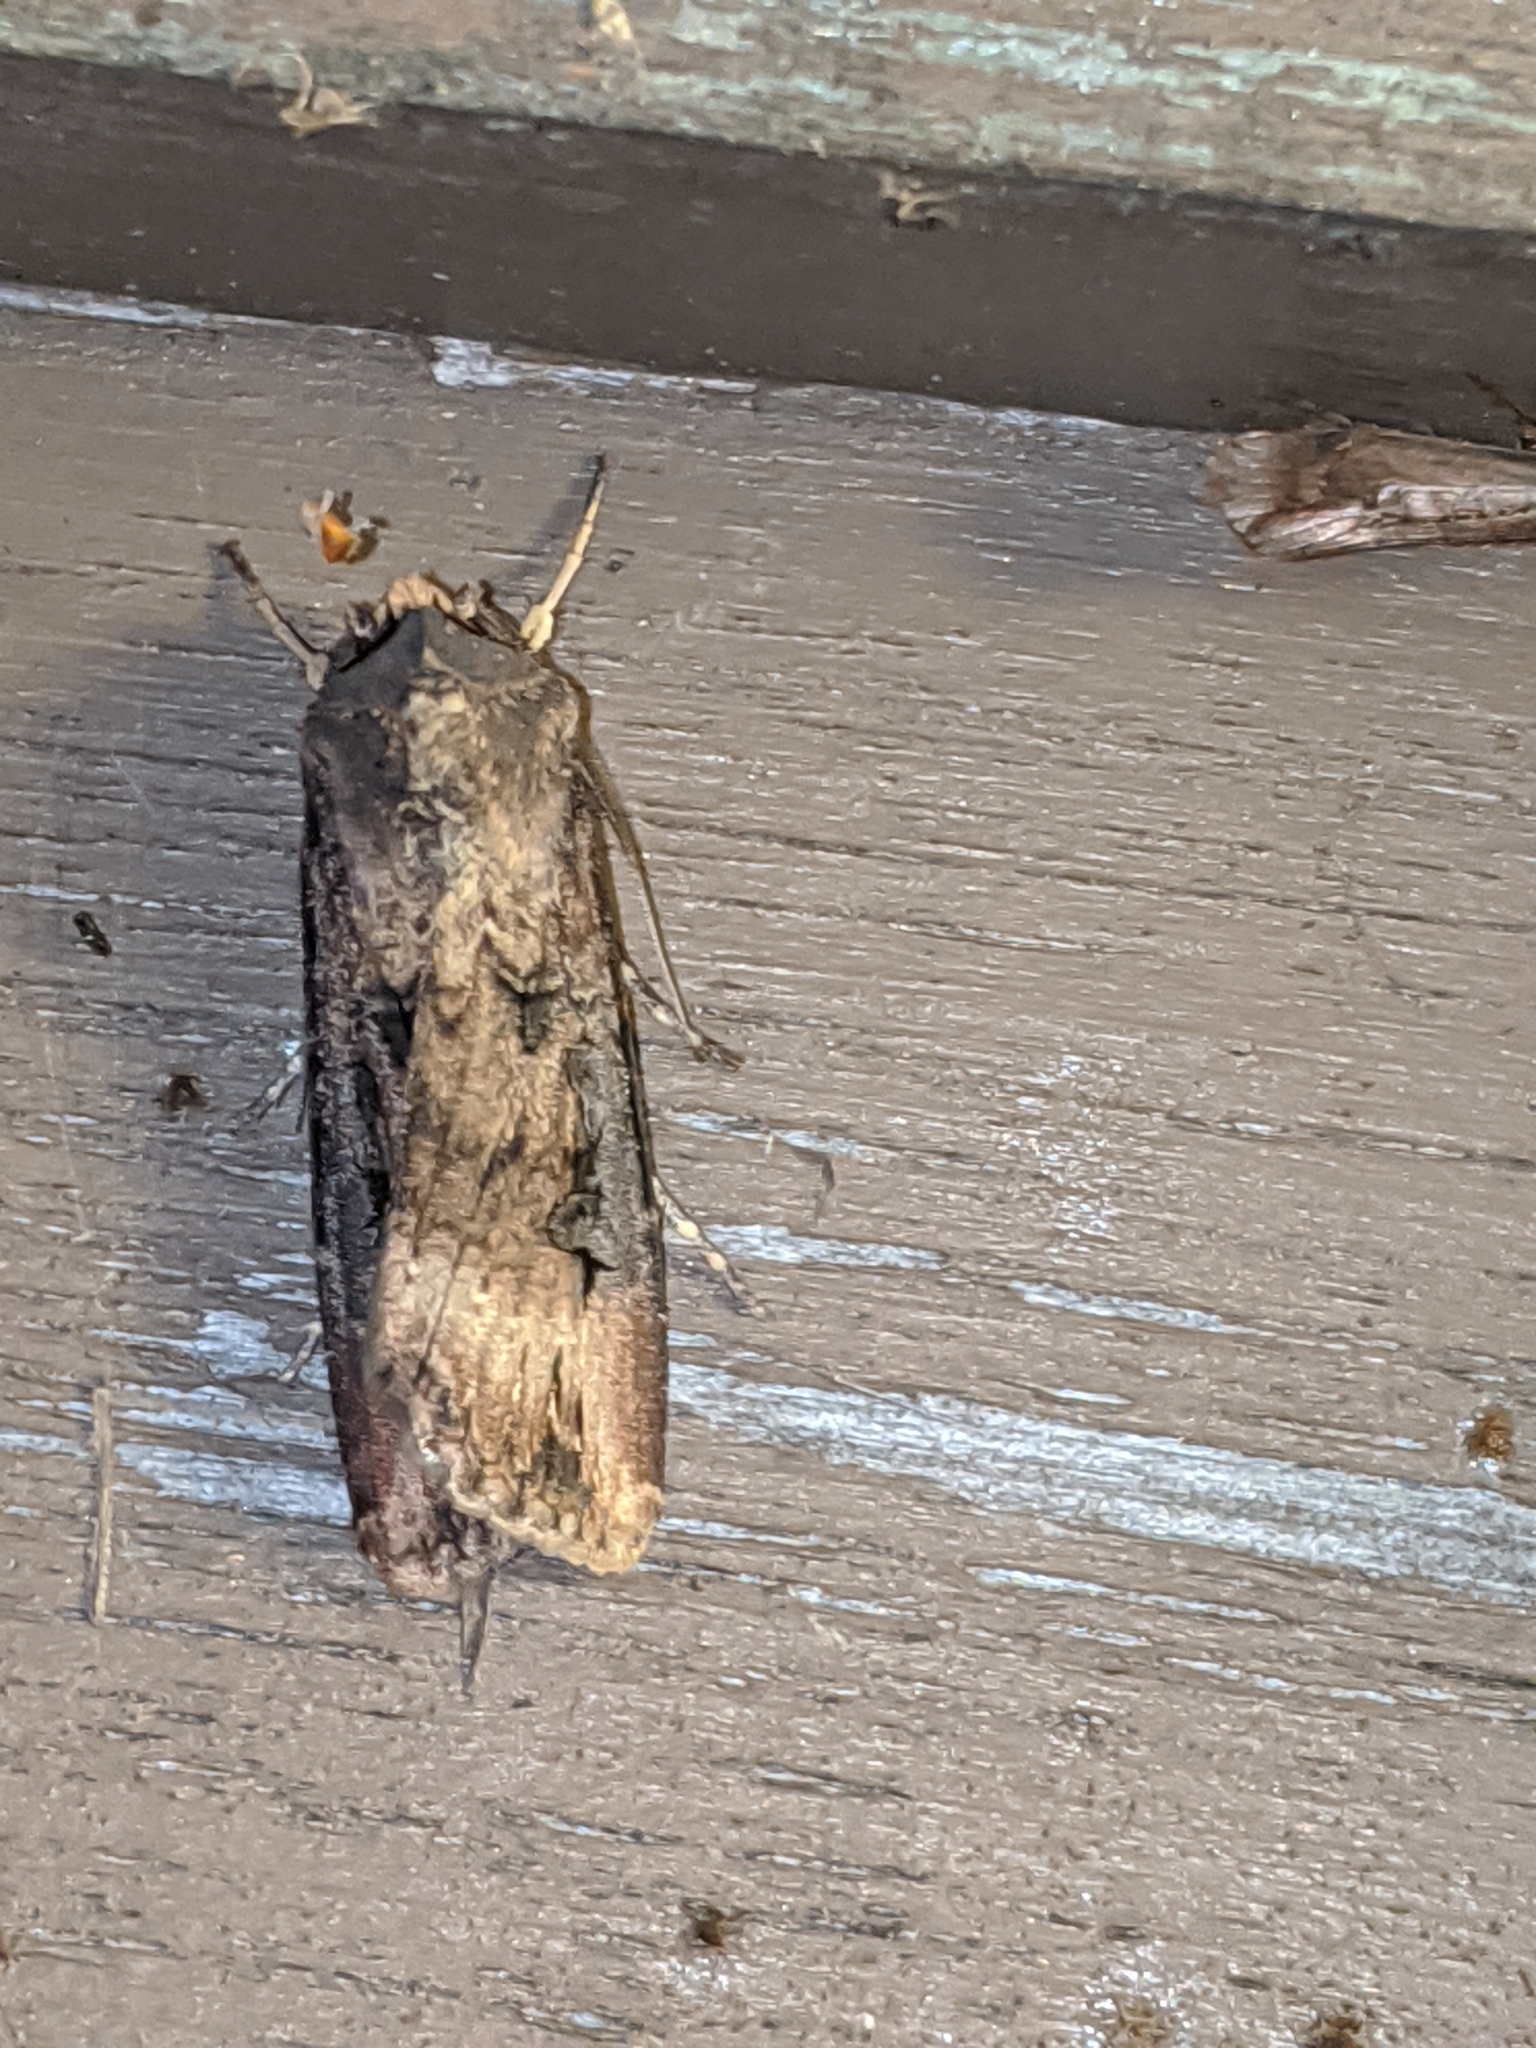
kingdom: Animalia
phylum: Arthropoda
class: Insecta
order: Lepidoptera
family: Noctuidae
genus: Agrotis
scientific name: Agrotis ipsilon
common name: Dark sword-grass
